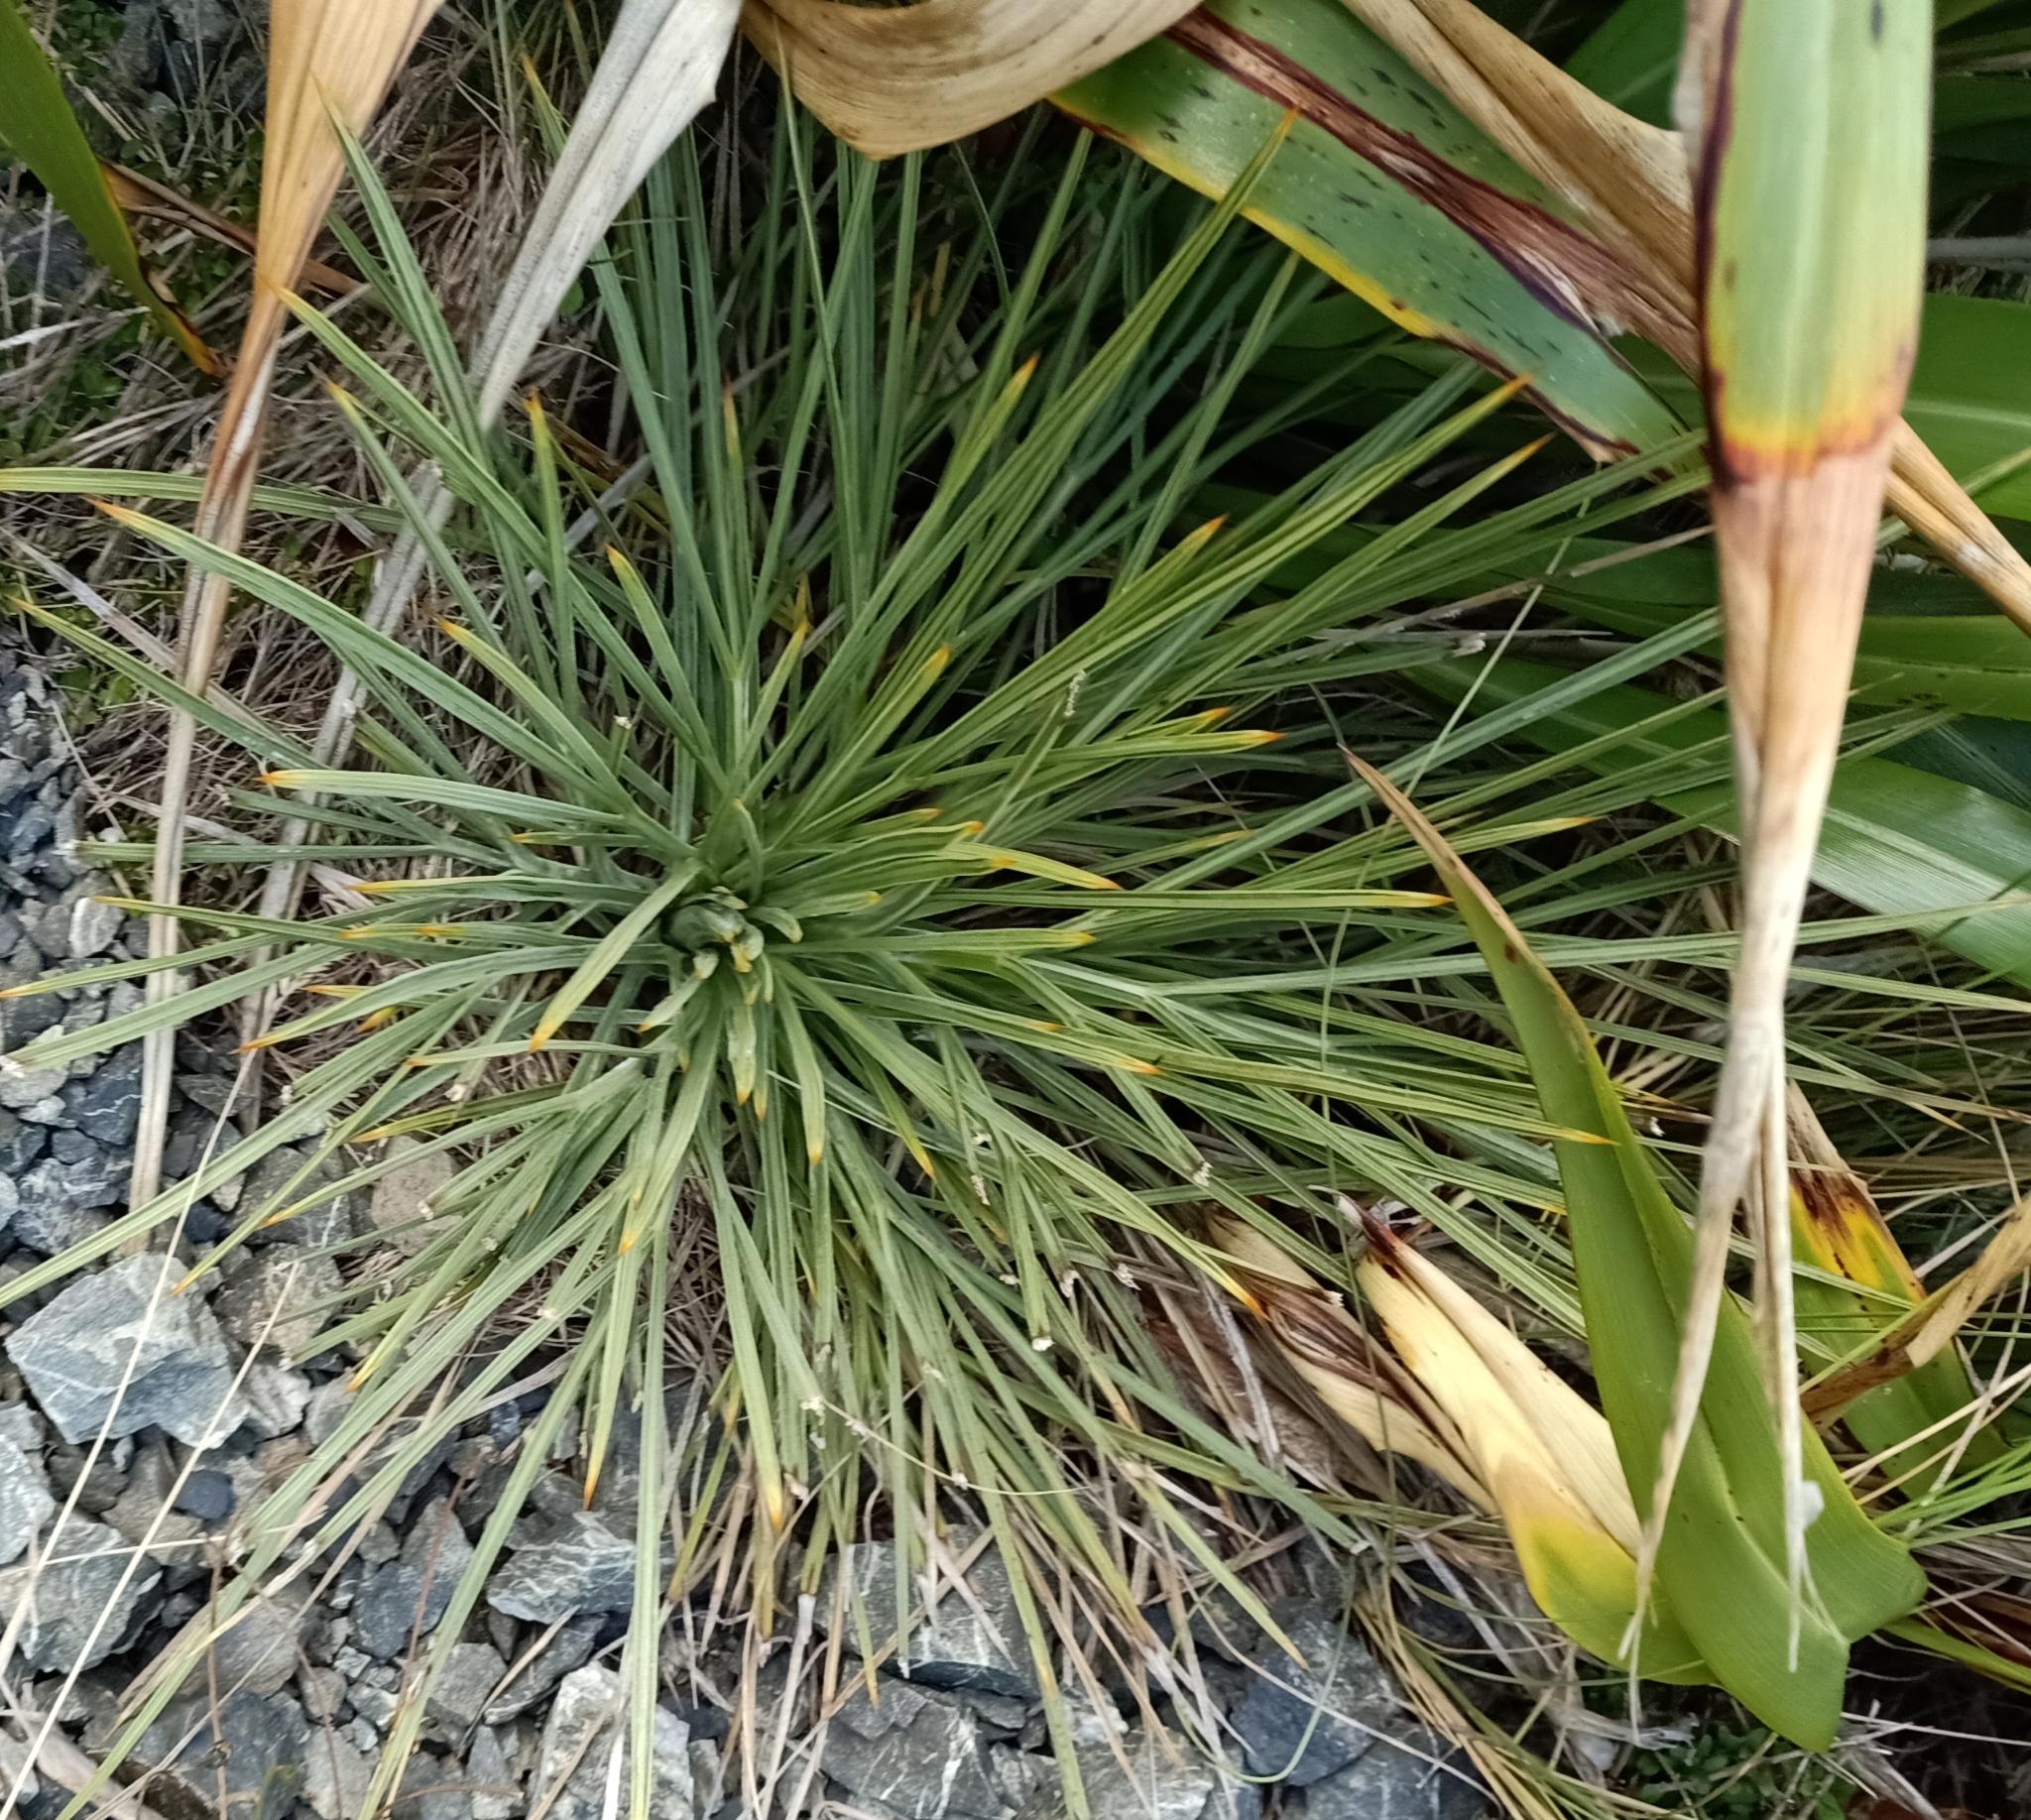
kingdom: Plantae
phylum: Tracheophyta
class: Magnoliopsida
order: Apiales
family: Apiaceae
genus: Aciphylla
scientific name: Aciphylla squarrosa
